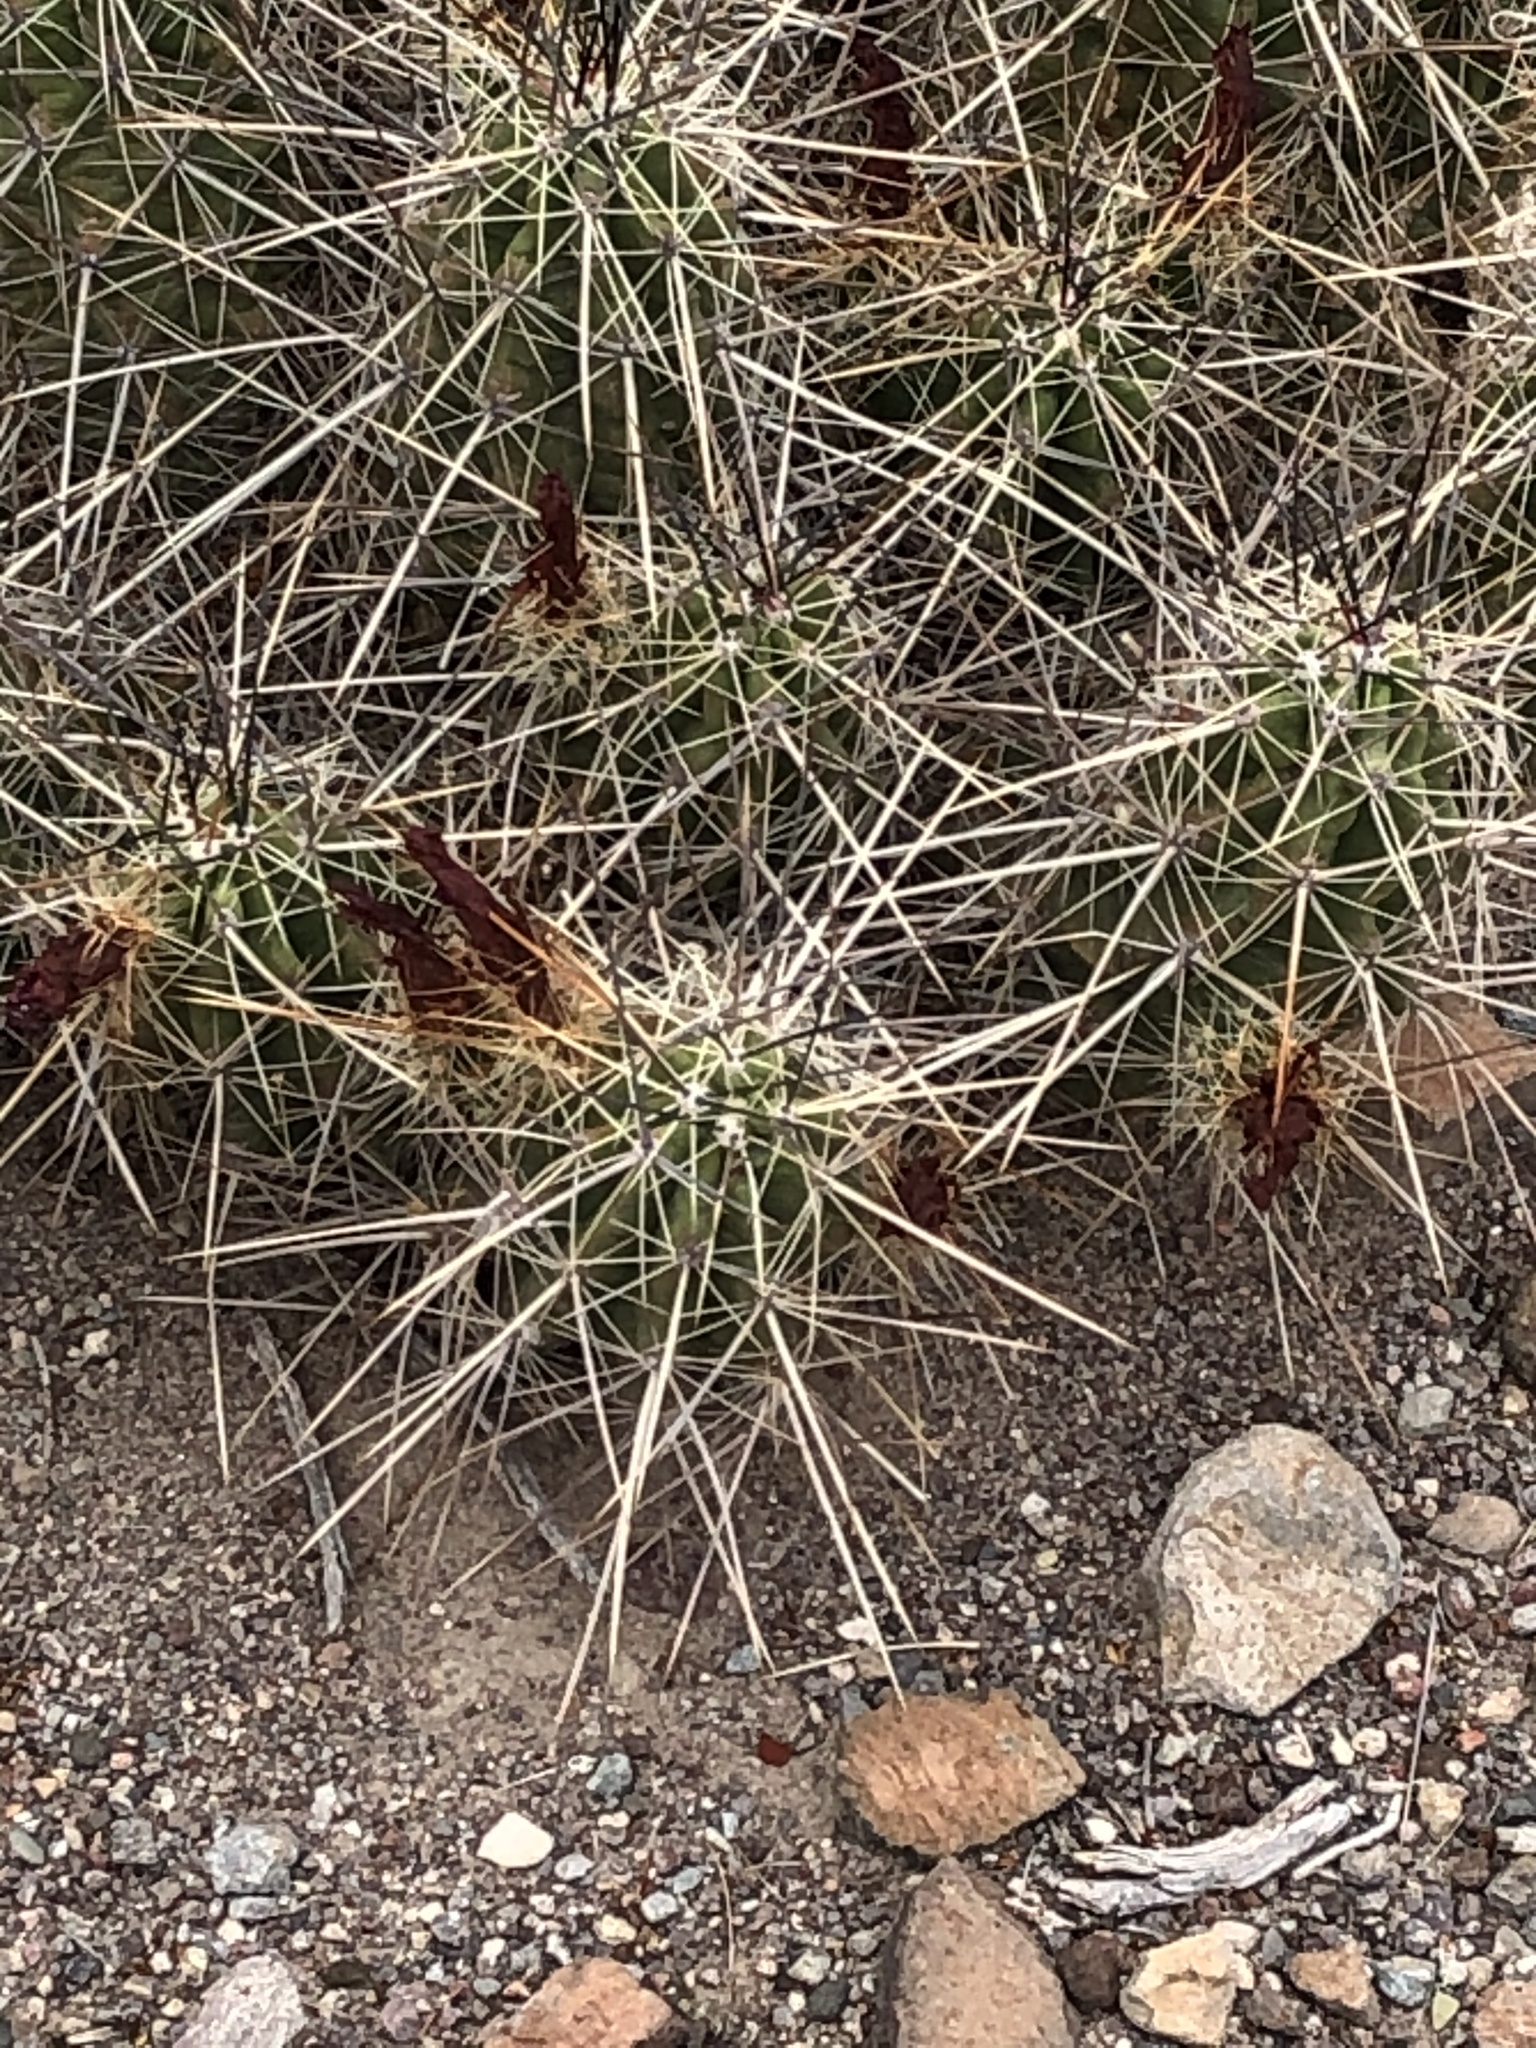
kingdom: Plantae
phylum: Tracheophyta
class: Magnoliopsida
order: Caryophyllales
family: Cactaceae
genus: Echinocereus
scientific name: Echinocereus enneacanthus
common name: Pitaya
